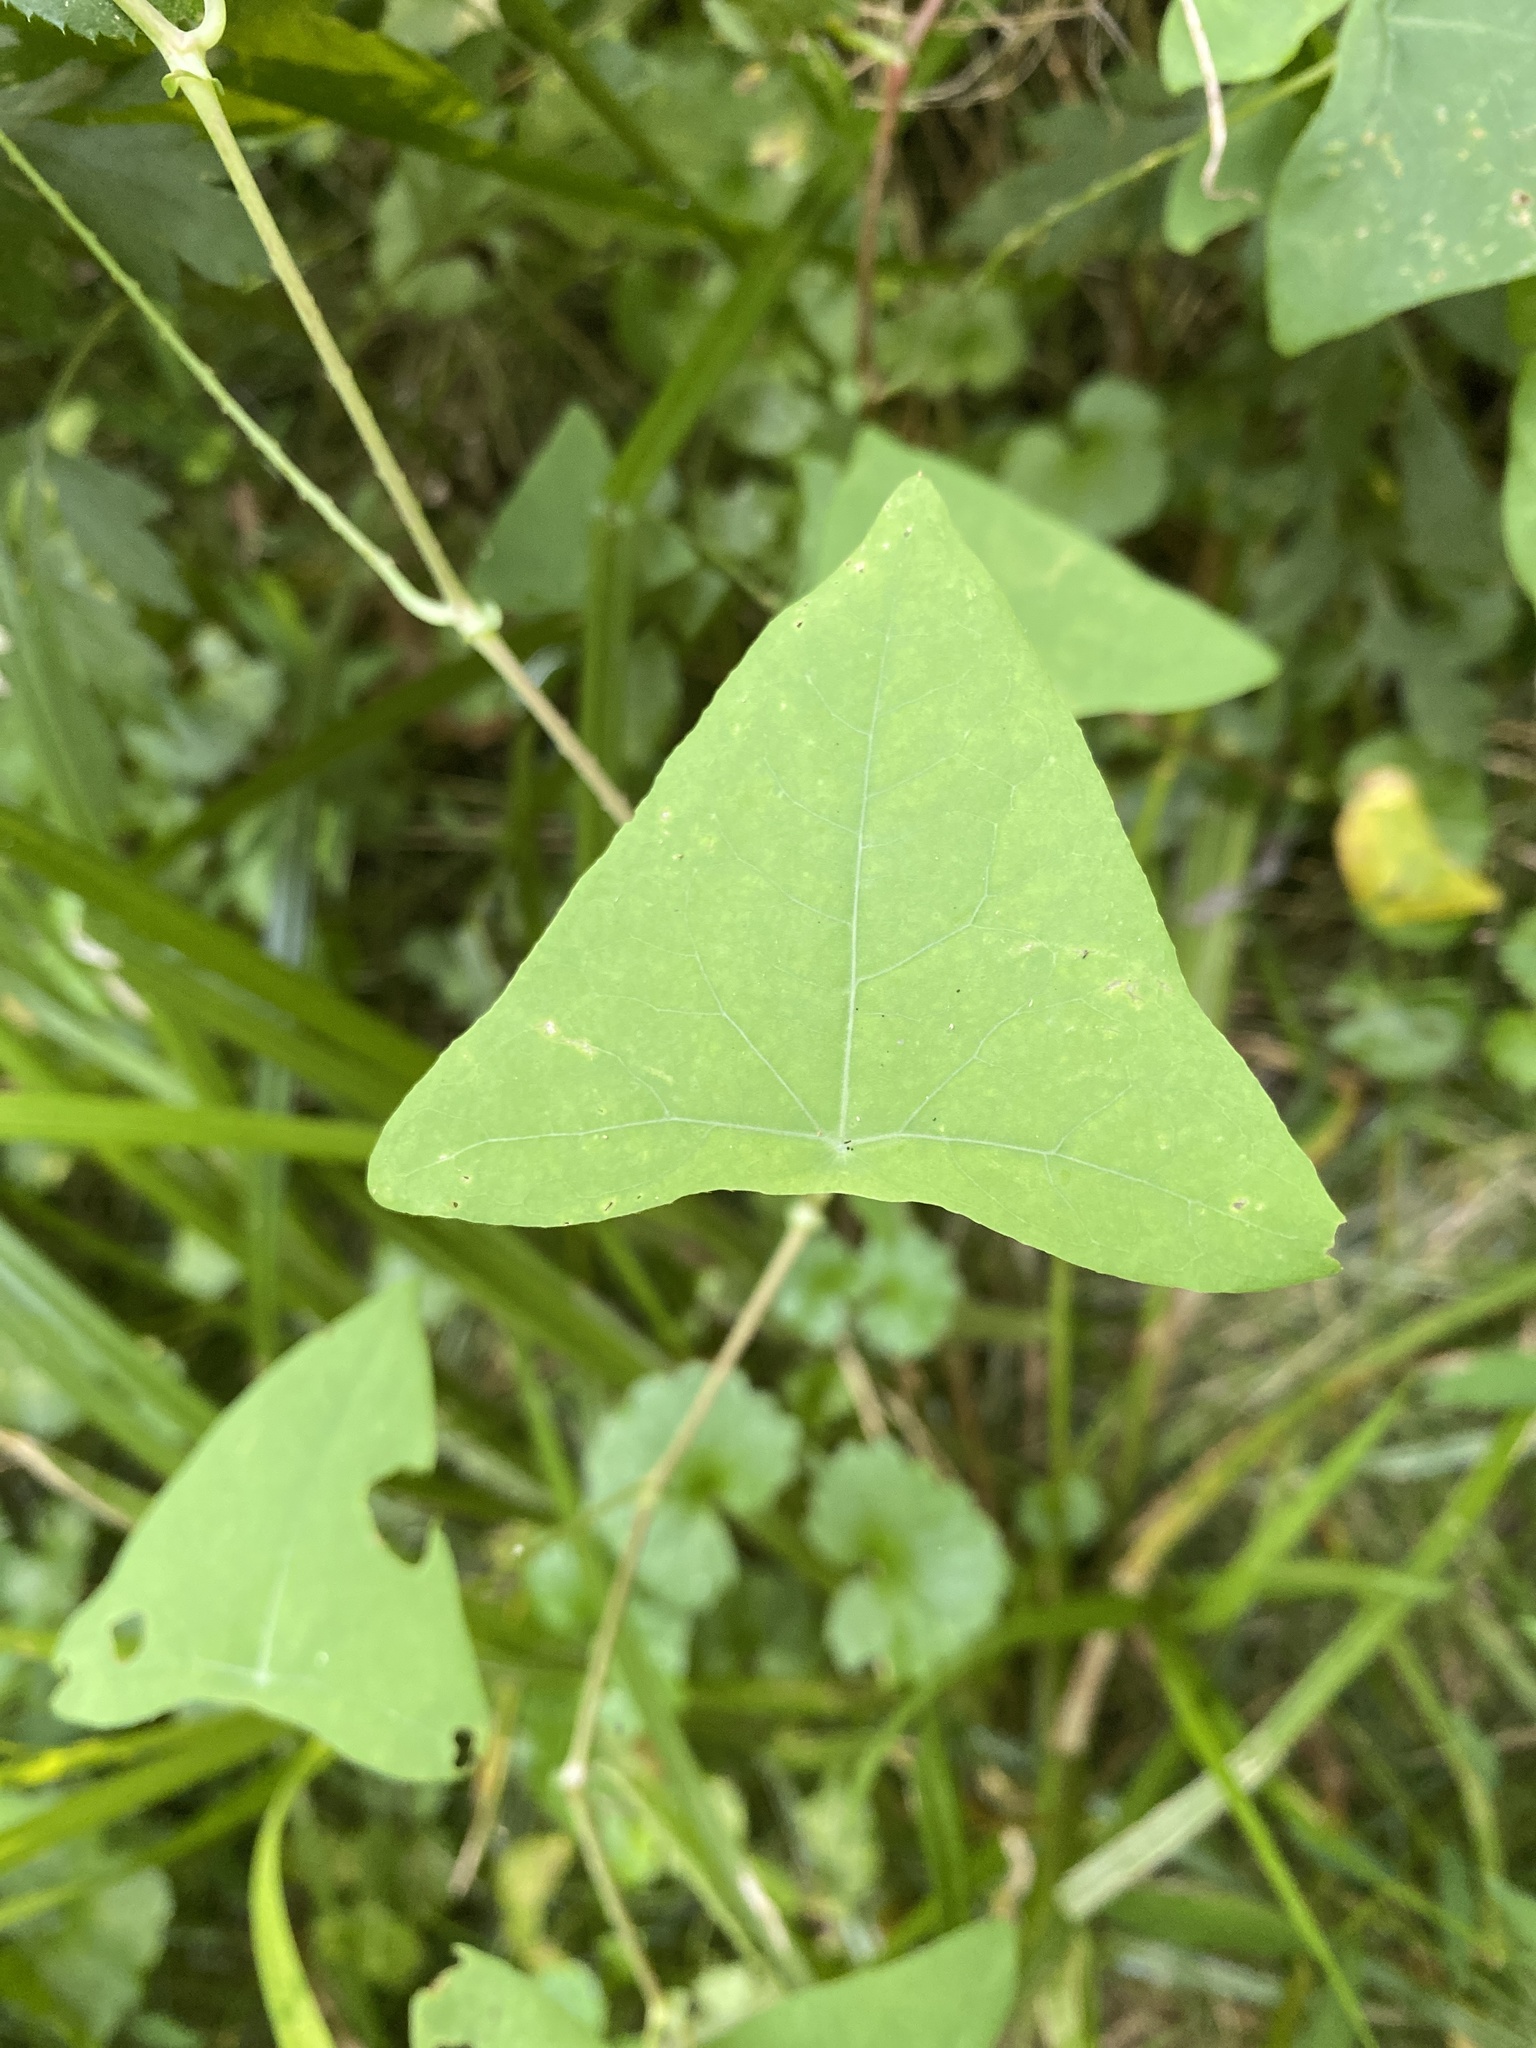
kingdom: Plantae
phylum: Tracheophyta
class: Magnoliopsida
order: Caryophyllales
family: Polygonaceae
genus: Persicaria
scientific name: Persicaria perfoliata
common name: Asiatic tearthumb
